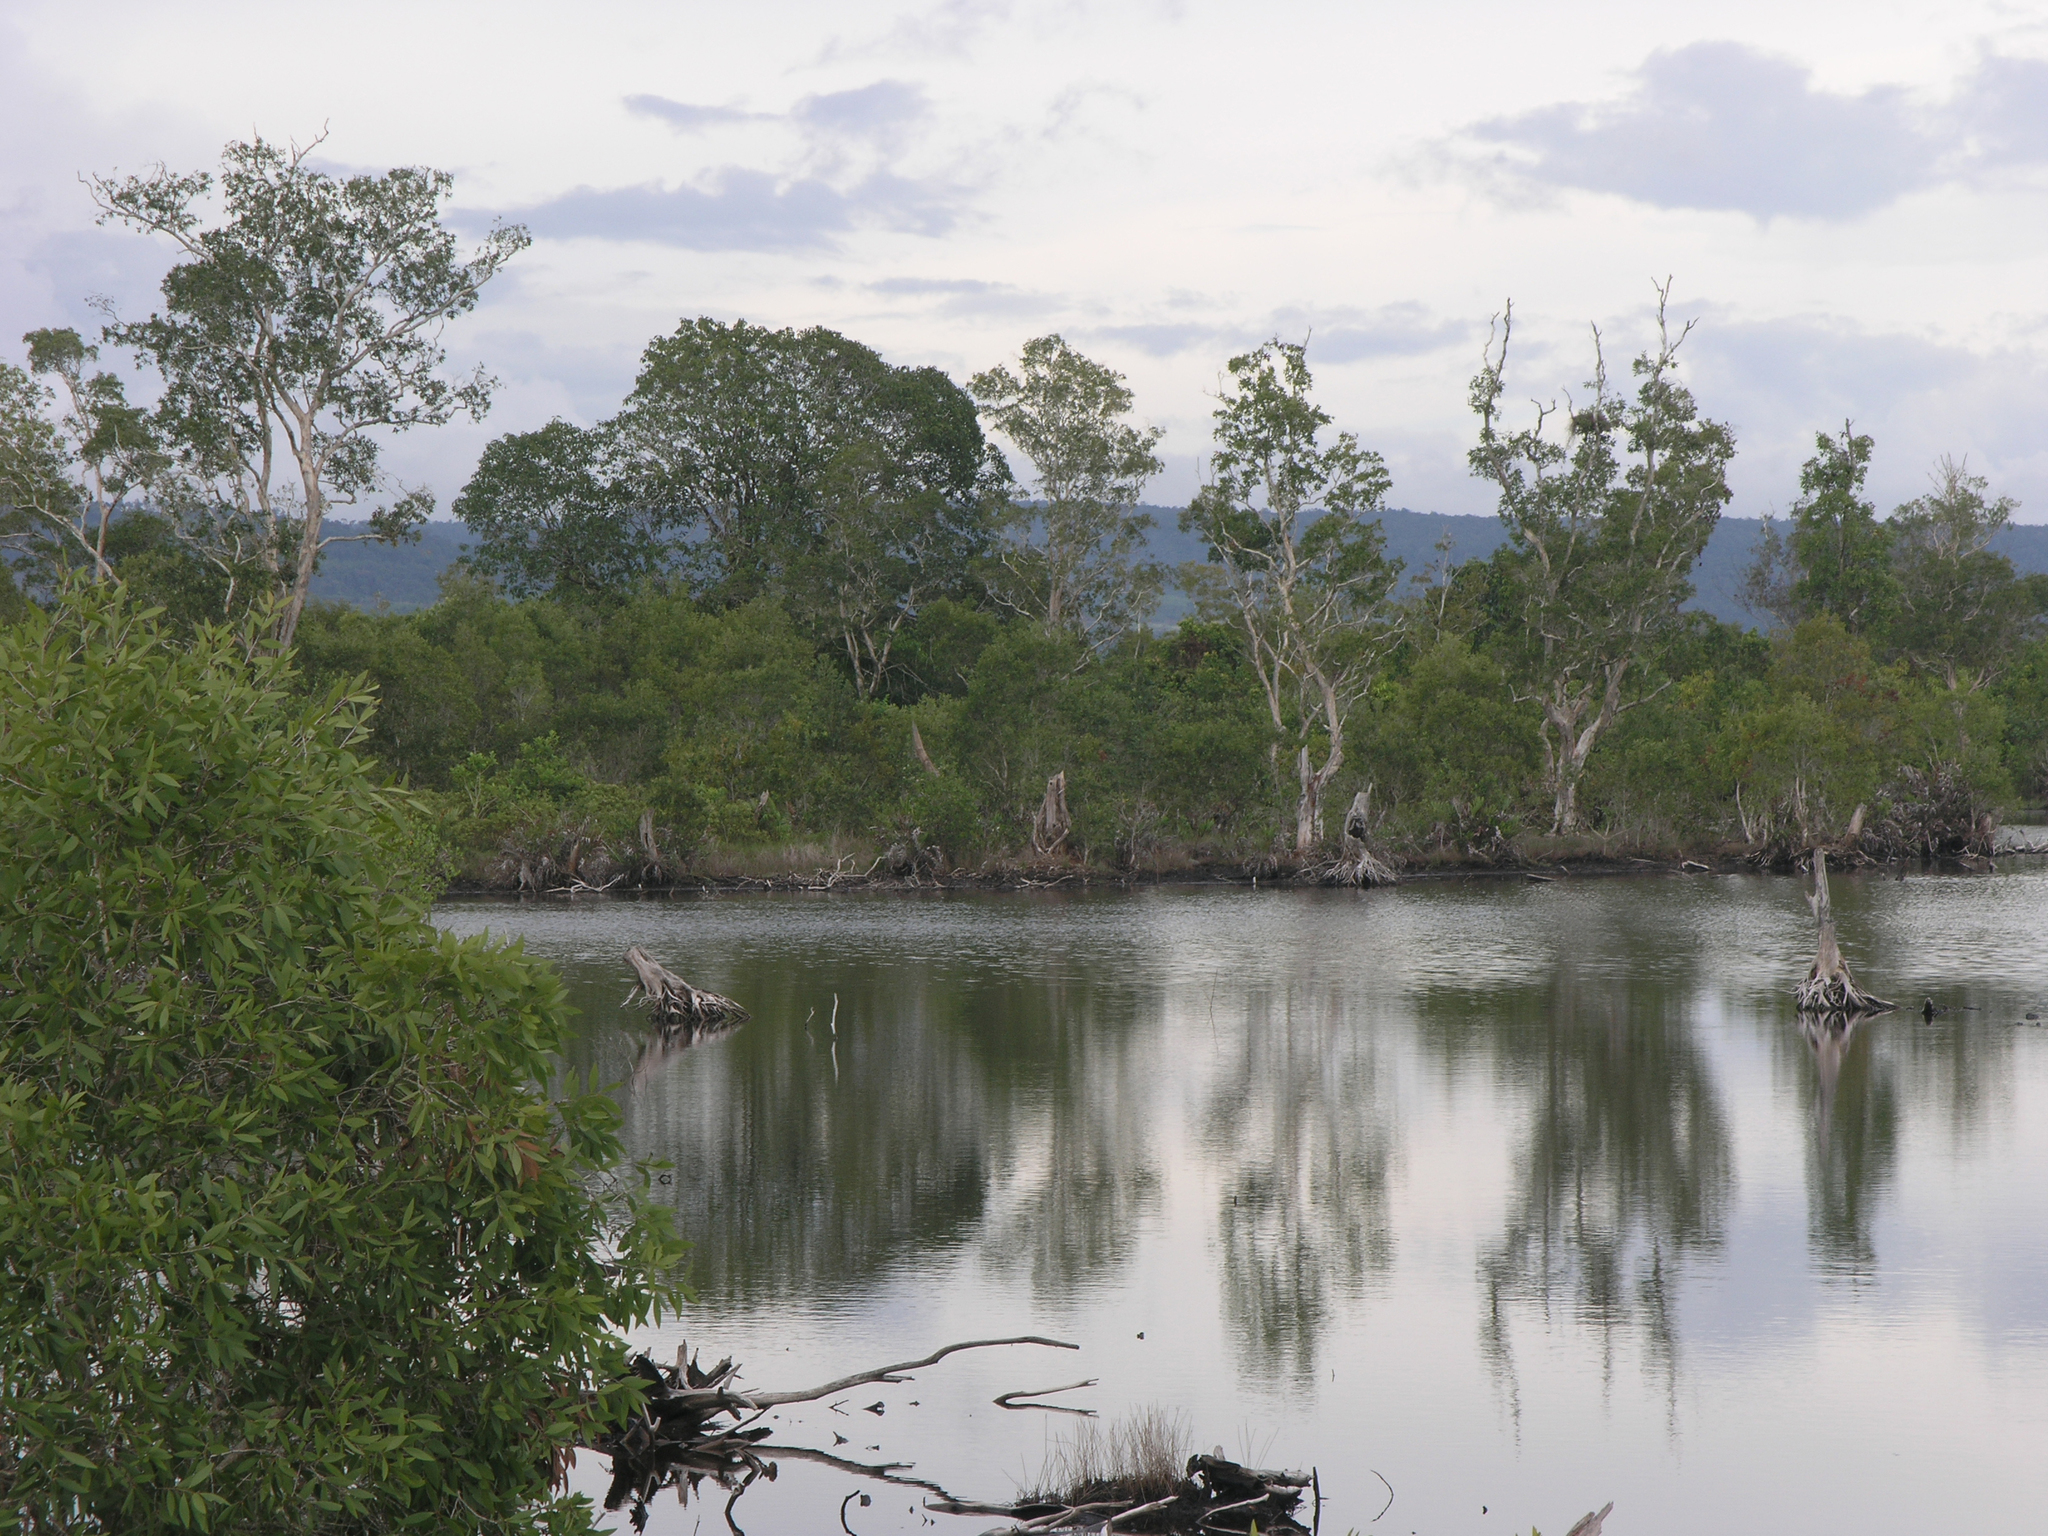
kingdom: Plantae
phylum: Tracheophyta
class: Magnoliopsida
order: Myrtales
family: Myrtaceae
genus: Melaleuca
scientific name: Melaleuca cajuputi
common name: Cajuput
